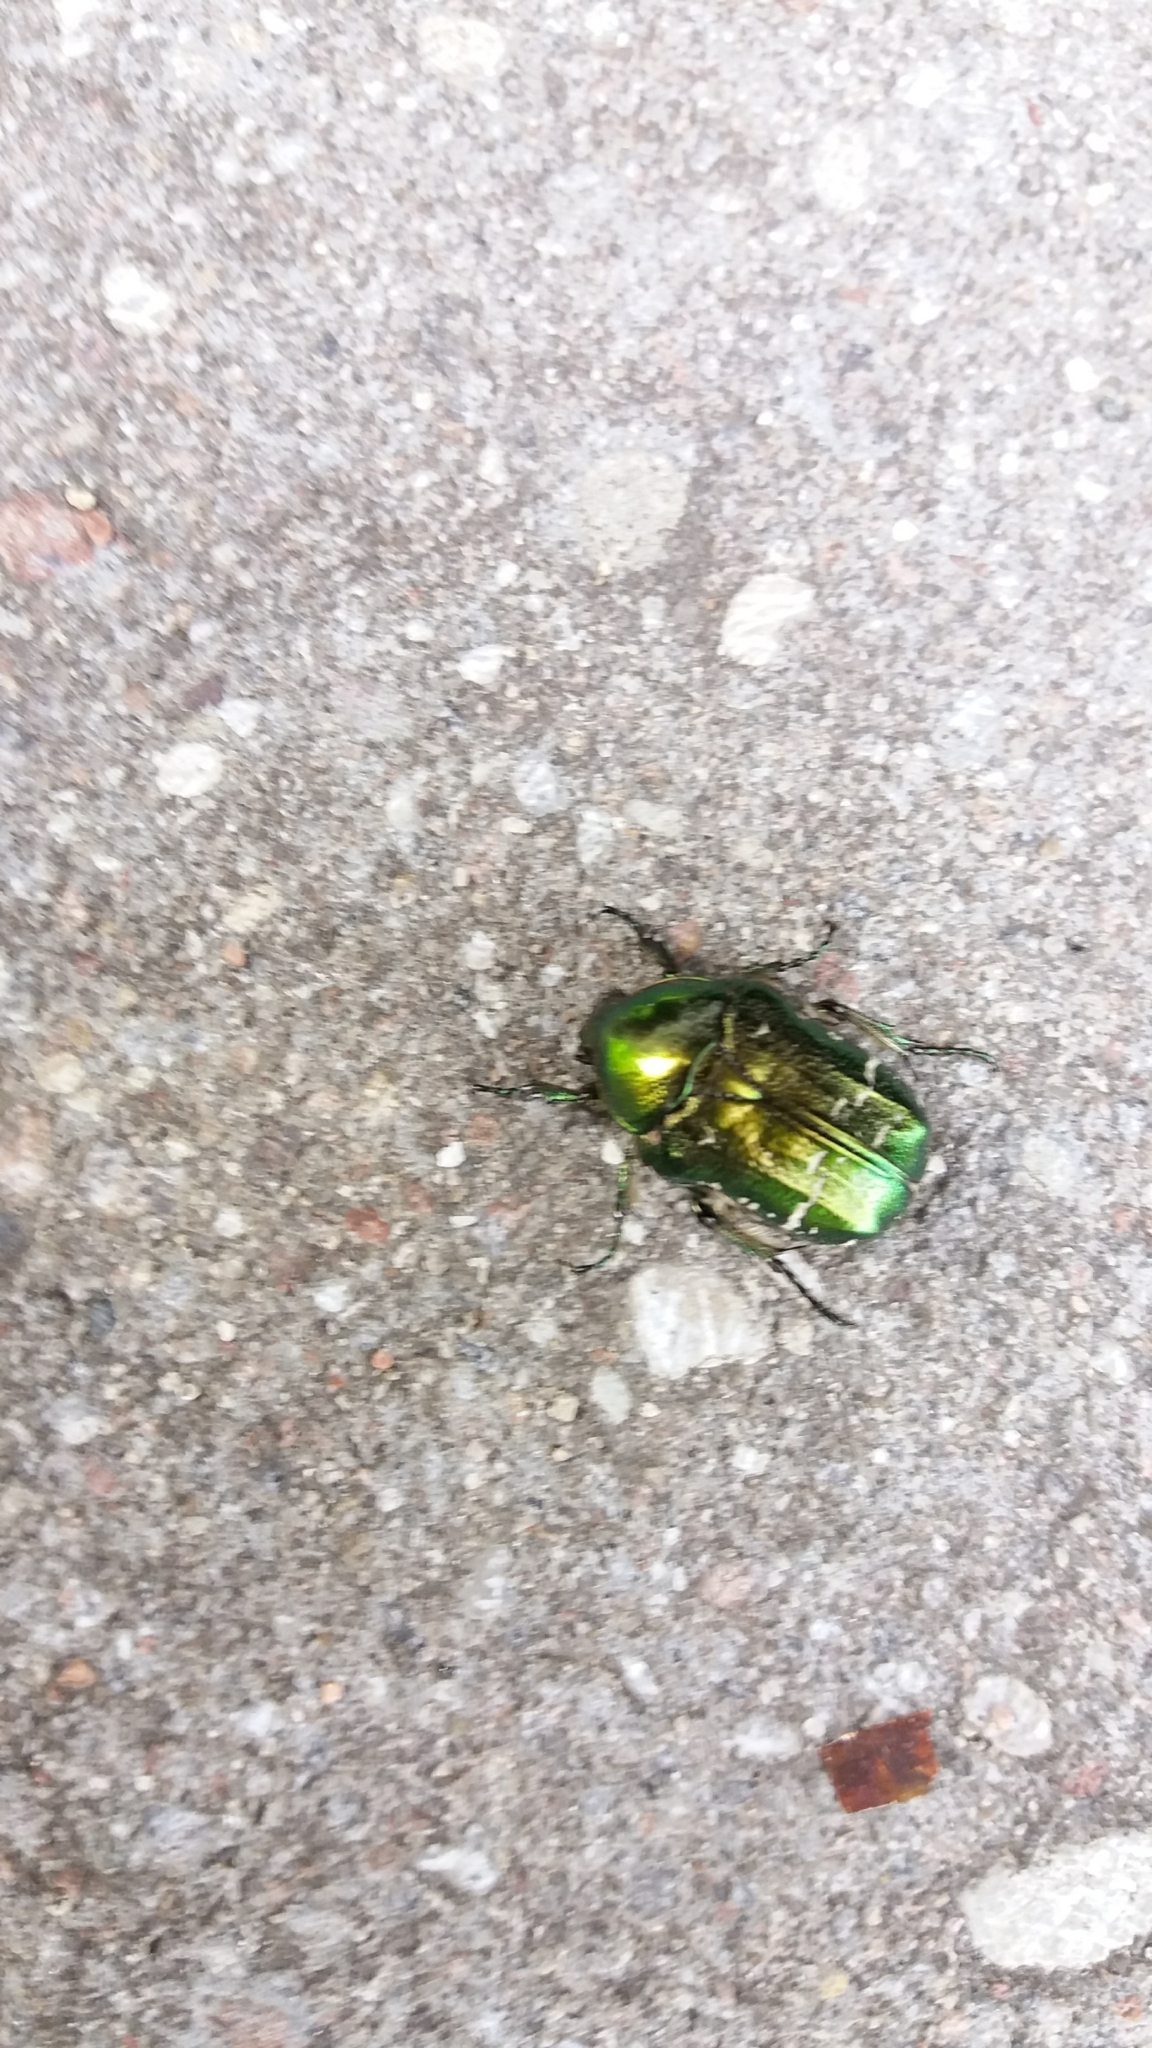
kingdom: Animalia
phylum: Arthropoda
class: Insecta
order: Coleoptera
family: Scarabaeidae
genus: Cetonia
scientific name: Cetonia aurata
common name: Rose chafer
